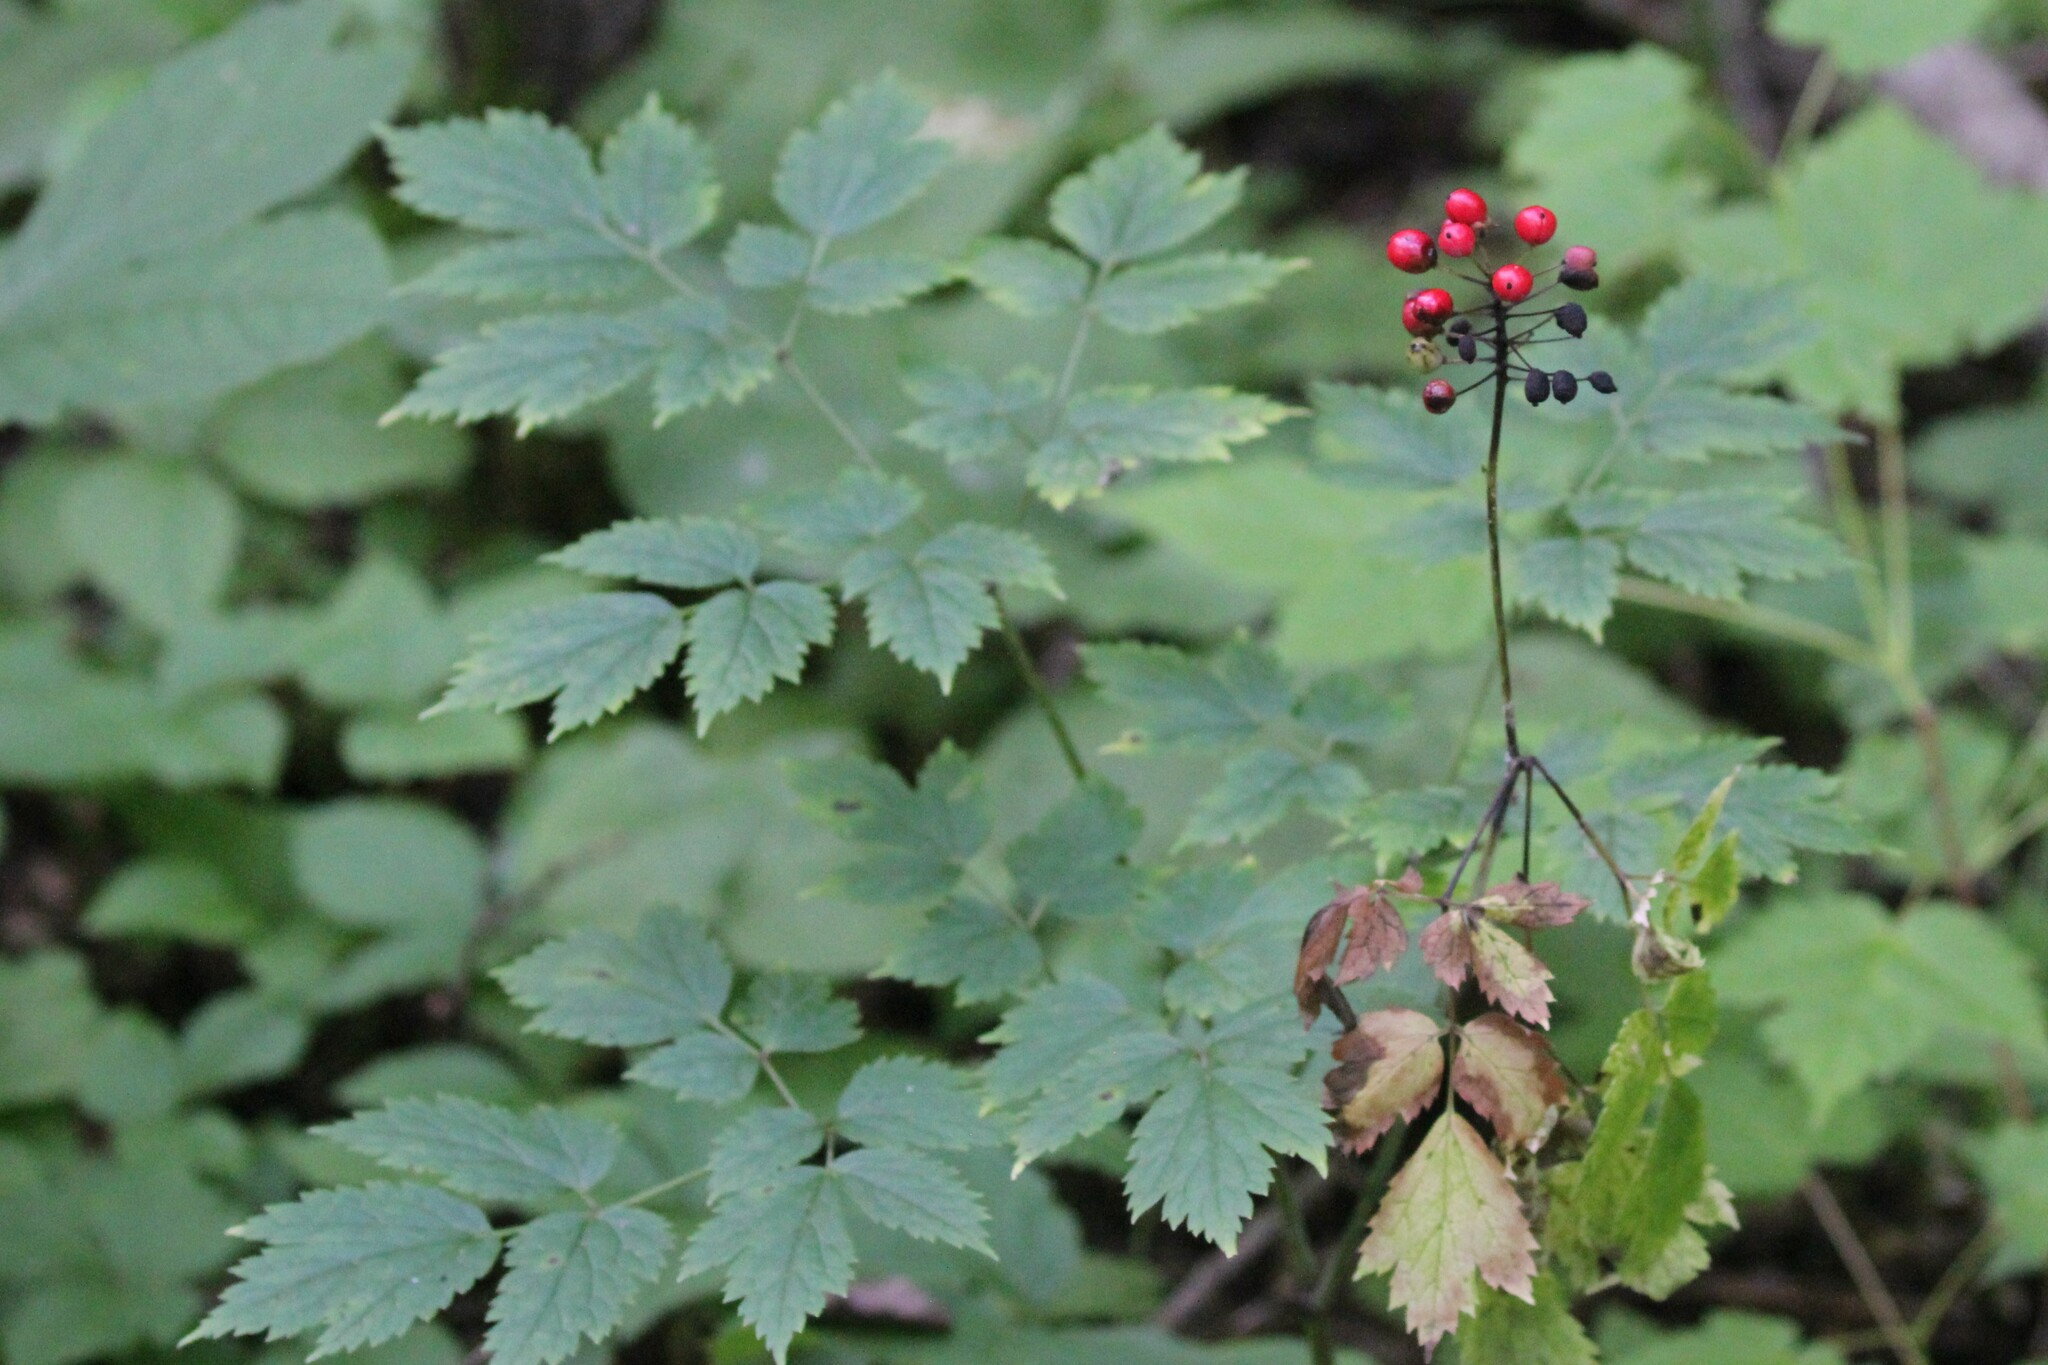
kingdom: Plantae
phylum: Tracheophyta
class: Magnoliopsida
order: Ranunculales
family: Ranunculaceae
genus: Actaea
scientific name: Actaea rubra
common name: Red baneberry
